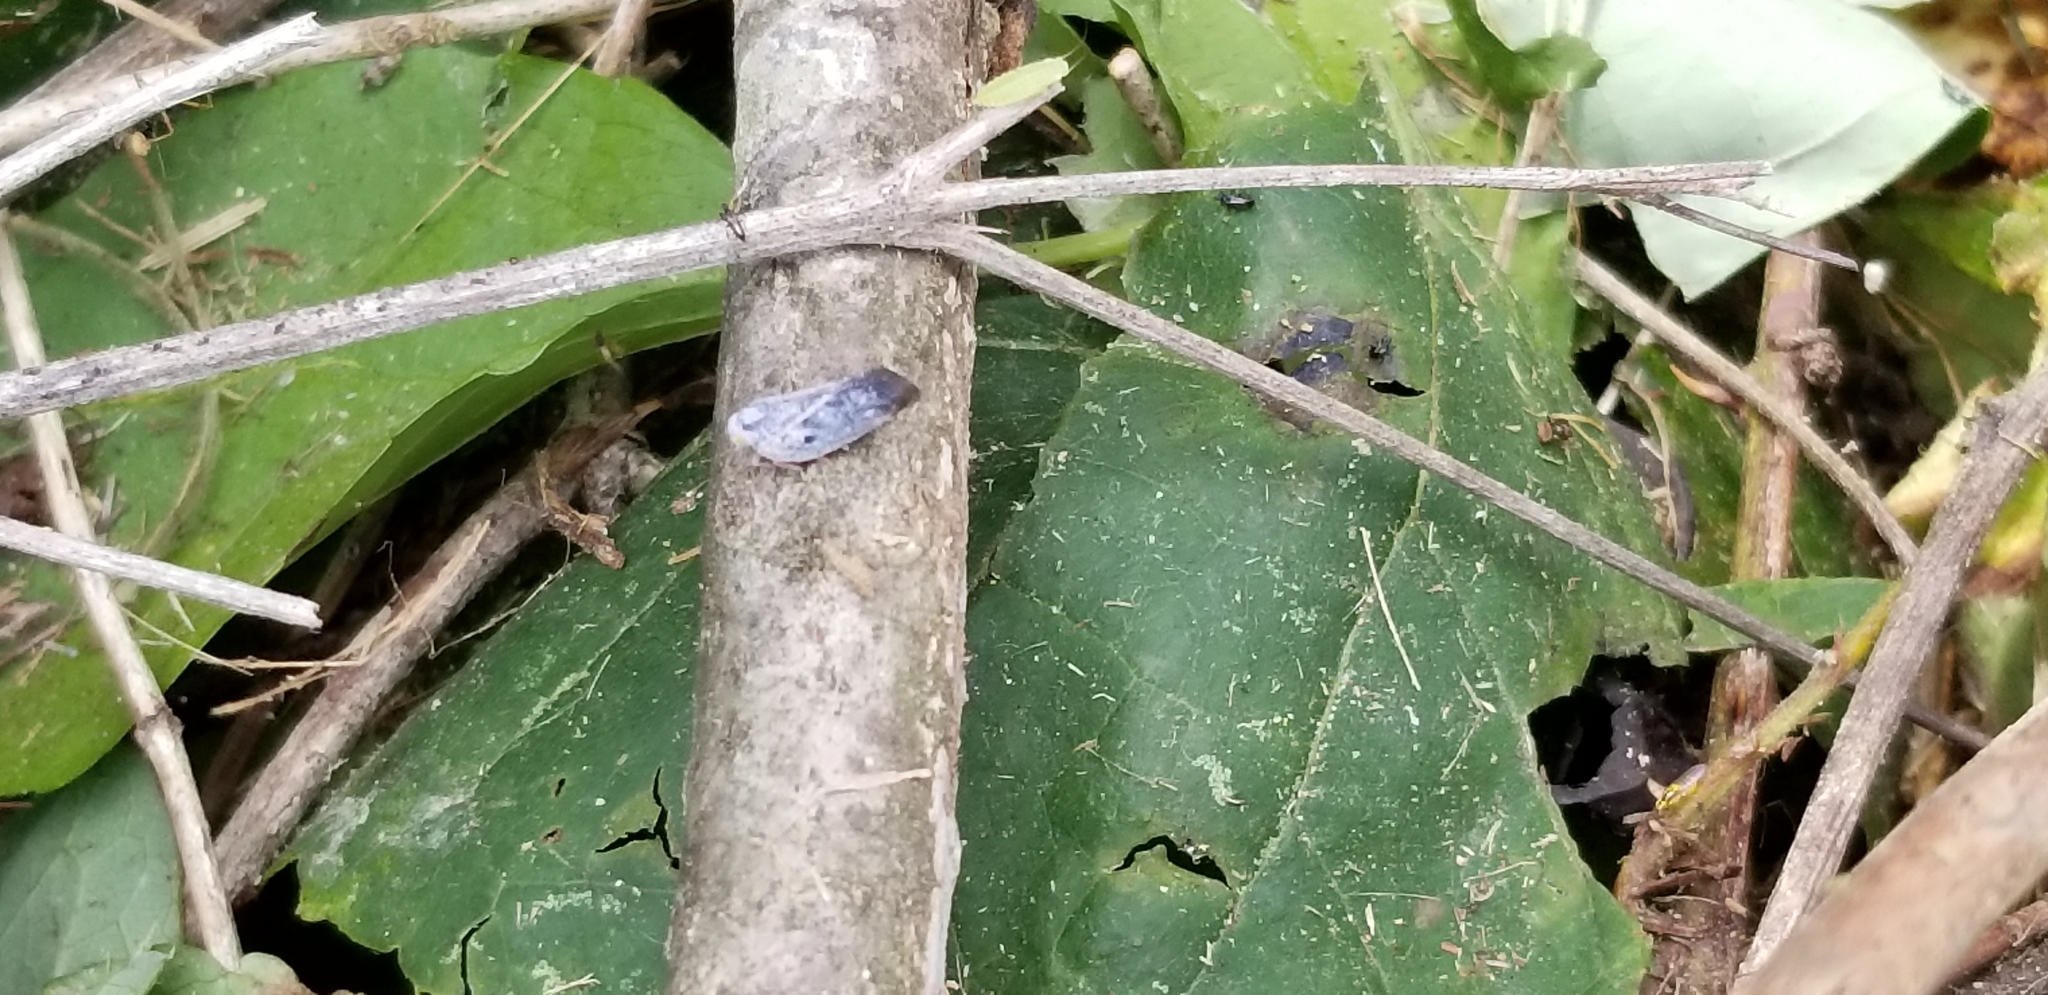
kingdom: Animalia
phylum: Arthropoda
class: Insecta
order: Hemiptera
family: Flatidae
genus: Metcalfa
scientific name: Metcalfa pruinosa
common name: Citrus flatid planthopper
